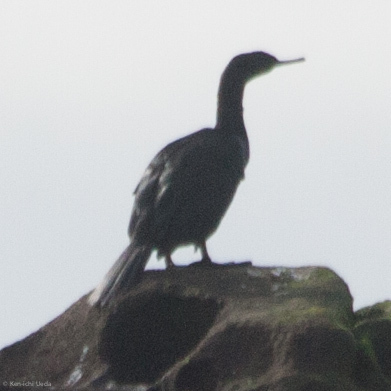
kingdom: Animalia
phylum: Chordata
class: Aves
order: Suliformes
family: Phalacrocoracidae
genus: Phalacrocorax
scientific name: Phalacrocorax pelagicus
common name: Pelagic cormorant
